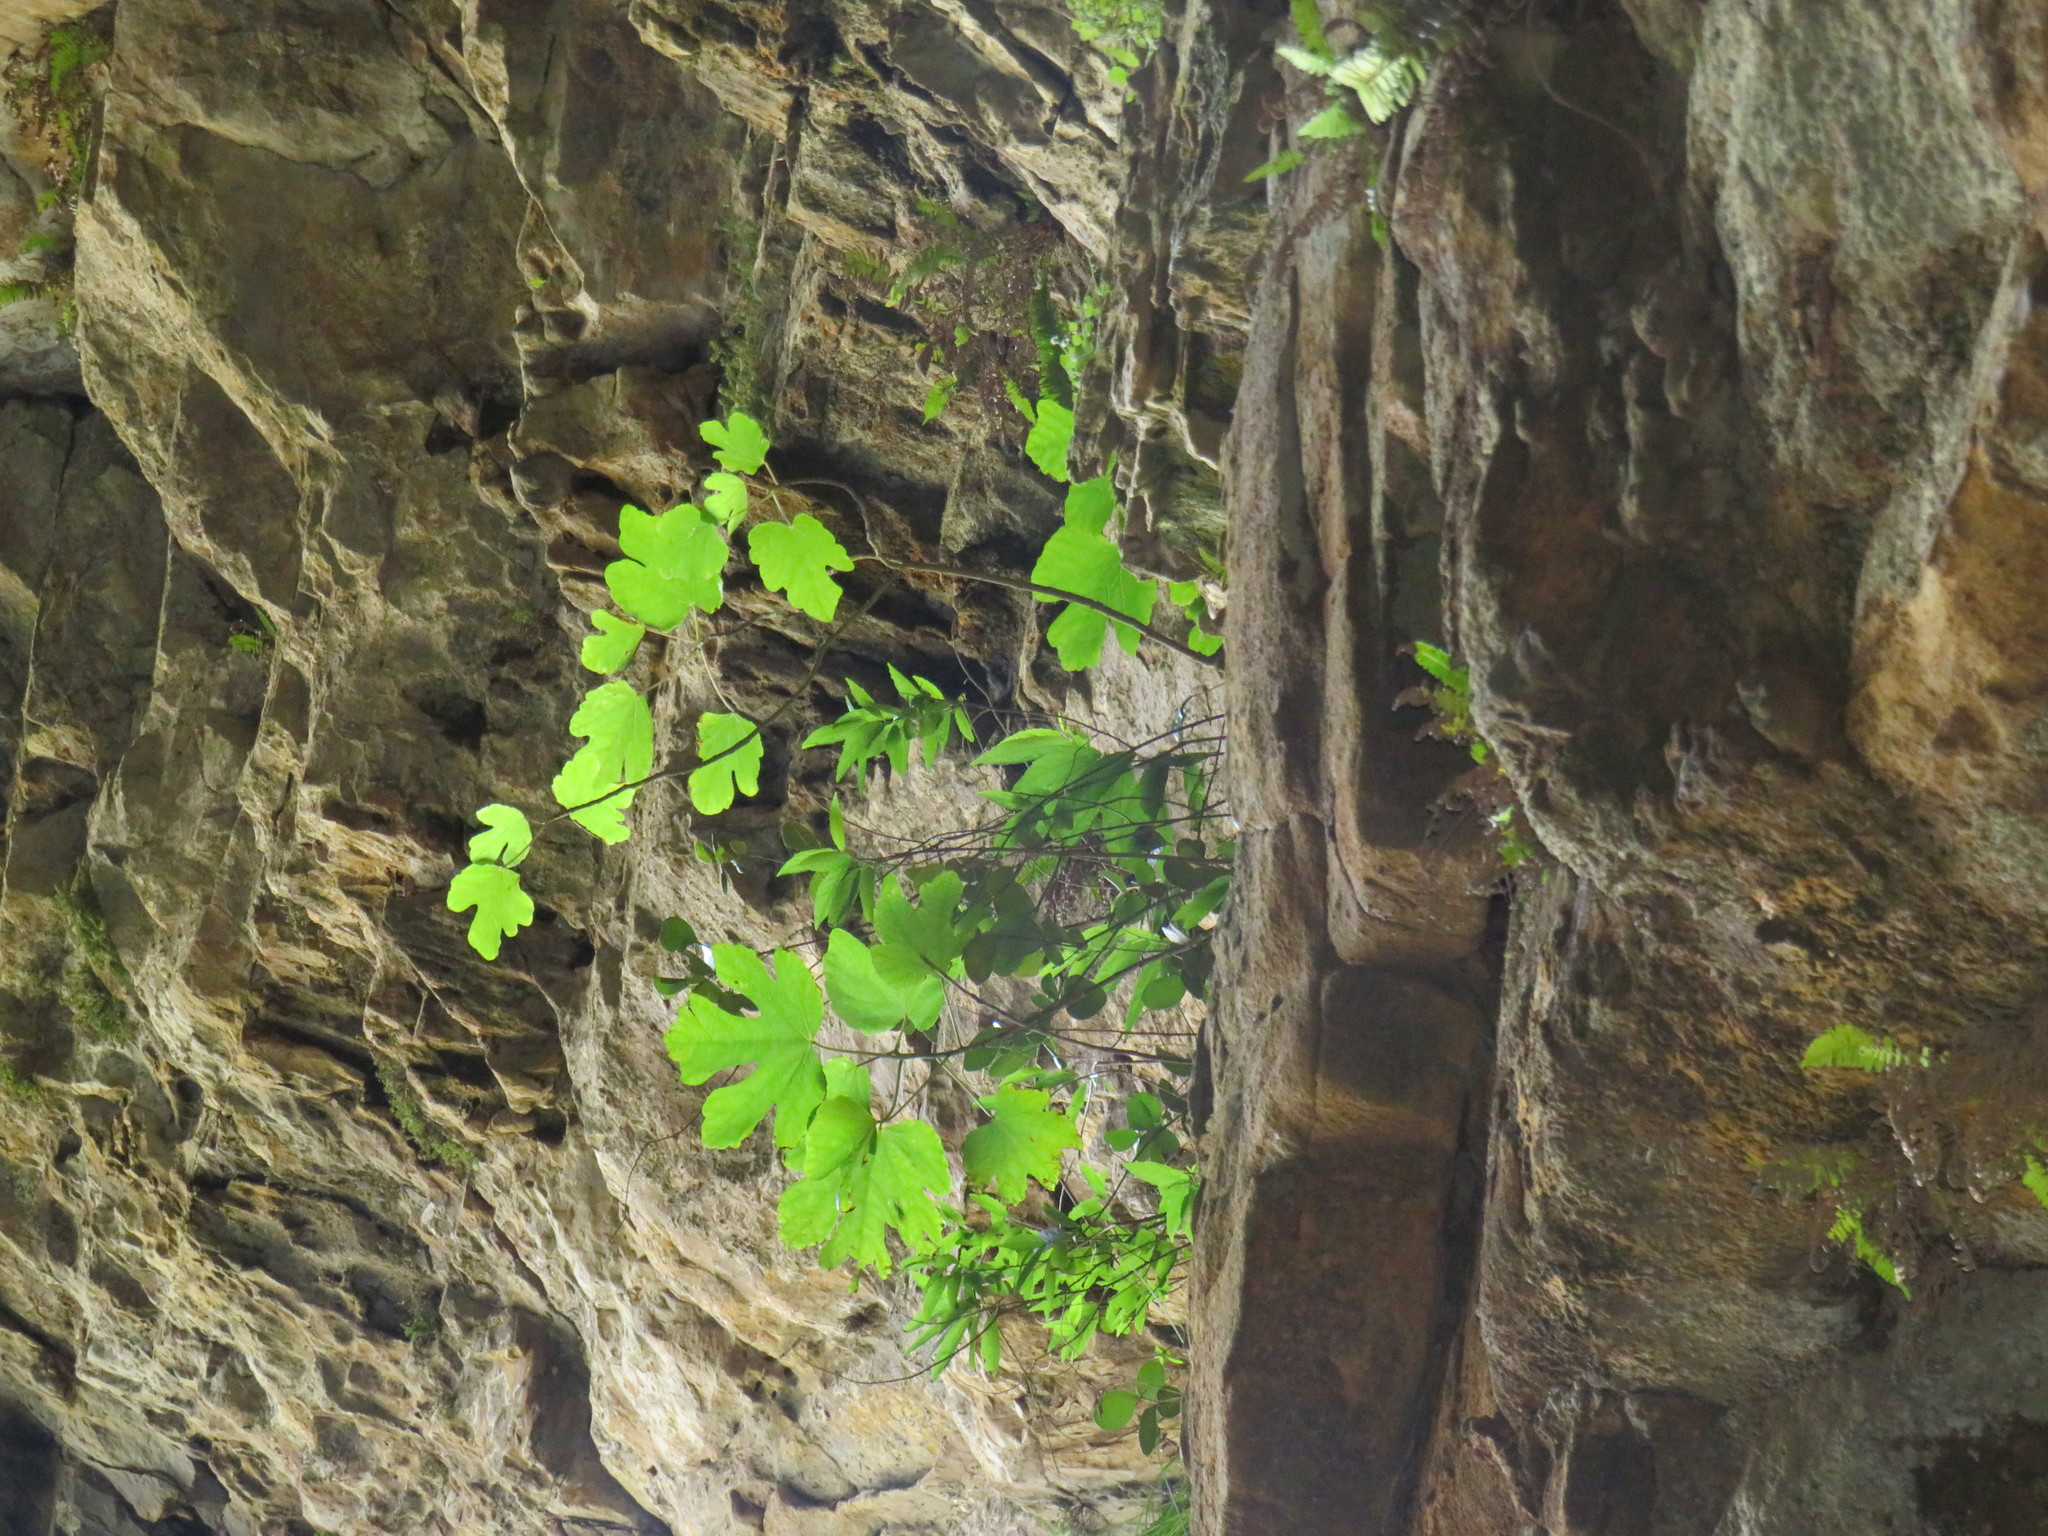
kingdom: Plantae
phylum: Tracheophyta
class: Magnoliopsida
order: Rosales
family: Moraceae
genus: Ficus
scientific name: Ficus carica
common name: Fig
